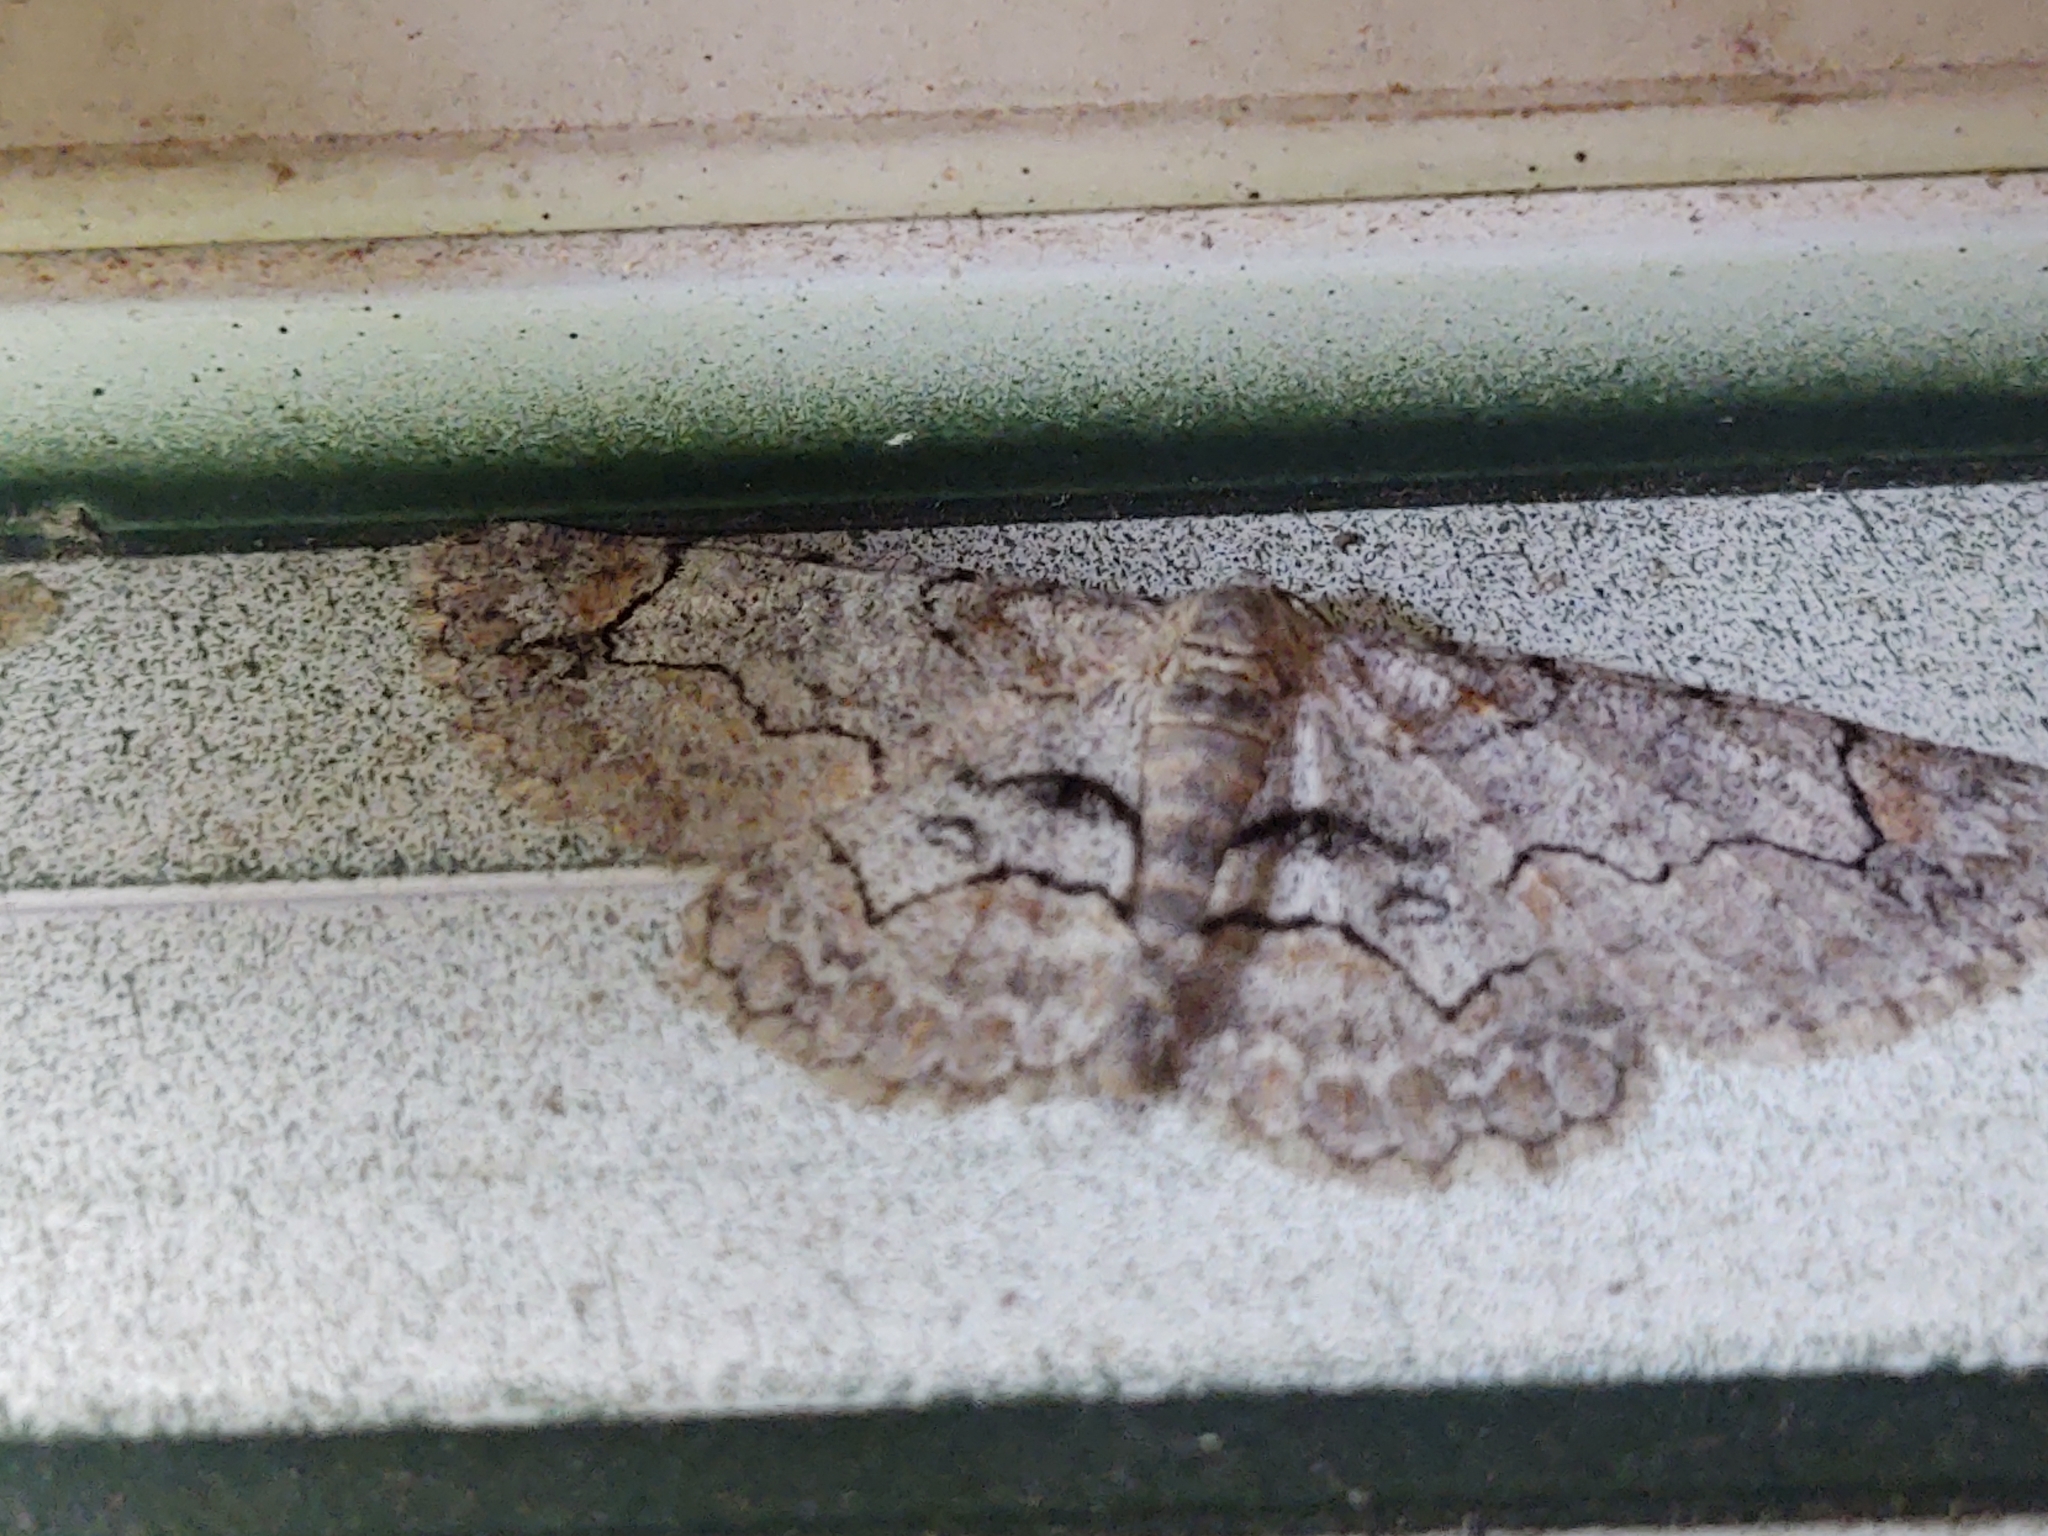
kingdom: Animalia
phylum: Arthropoda
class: Insecta
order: Lepidoptera
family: Geometridae
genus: Iridopsis
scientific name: Iridopsis larvaria
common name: Bent-line gray
